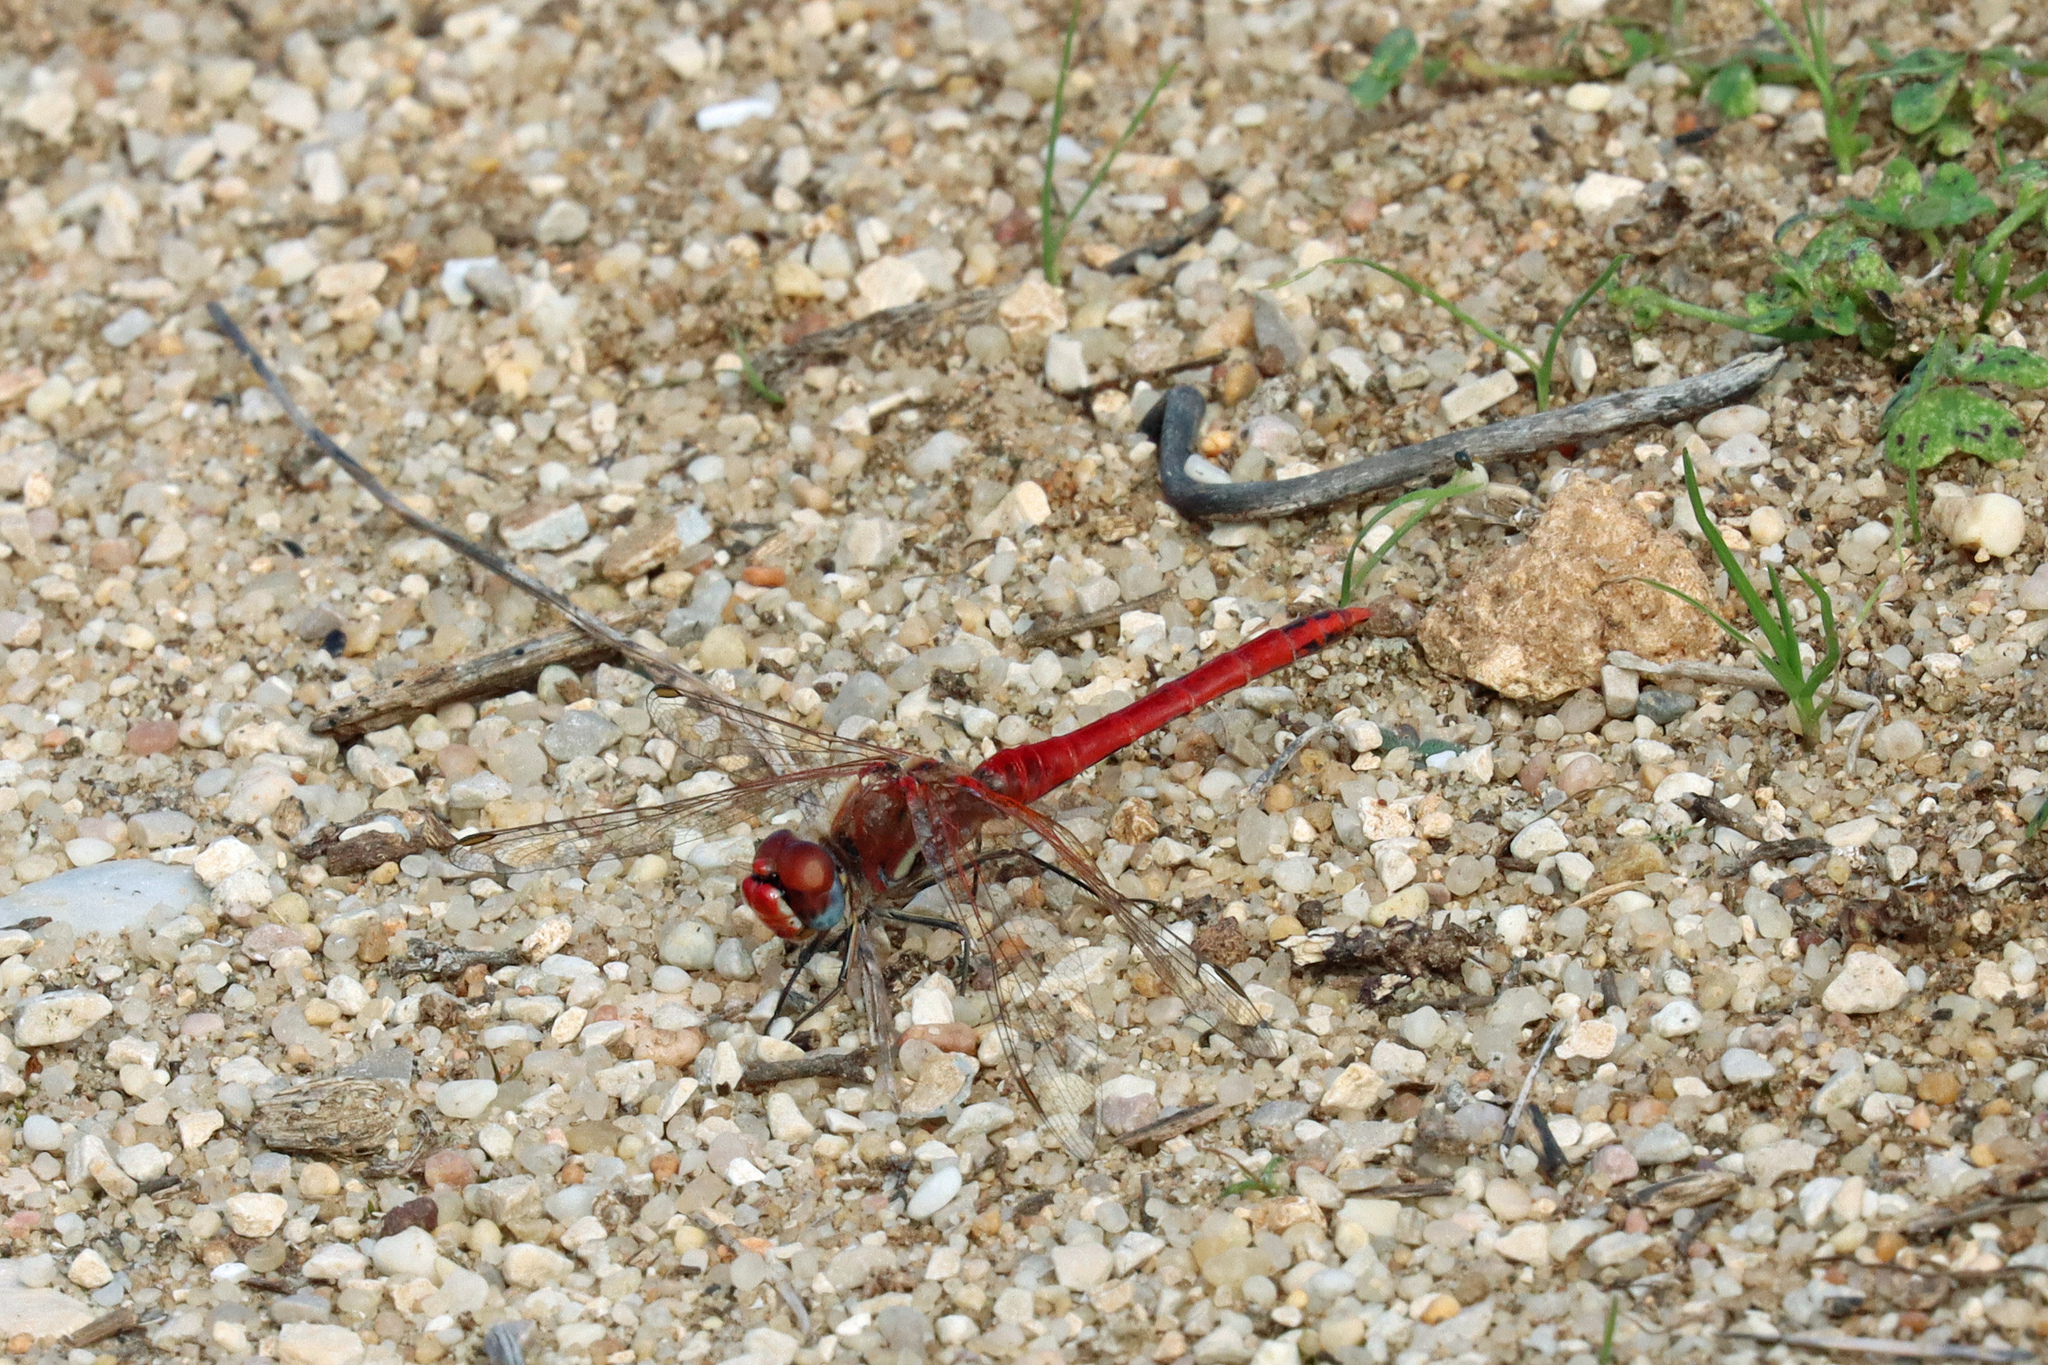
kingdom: Animalia
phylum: Arthropoda
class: Insecta
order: Odonata
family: Libellulidae
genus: Sympetrum
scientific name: Sympetrum fonscolombii
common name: Red-veined darter
